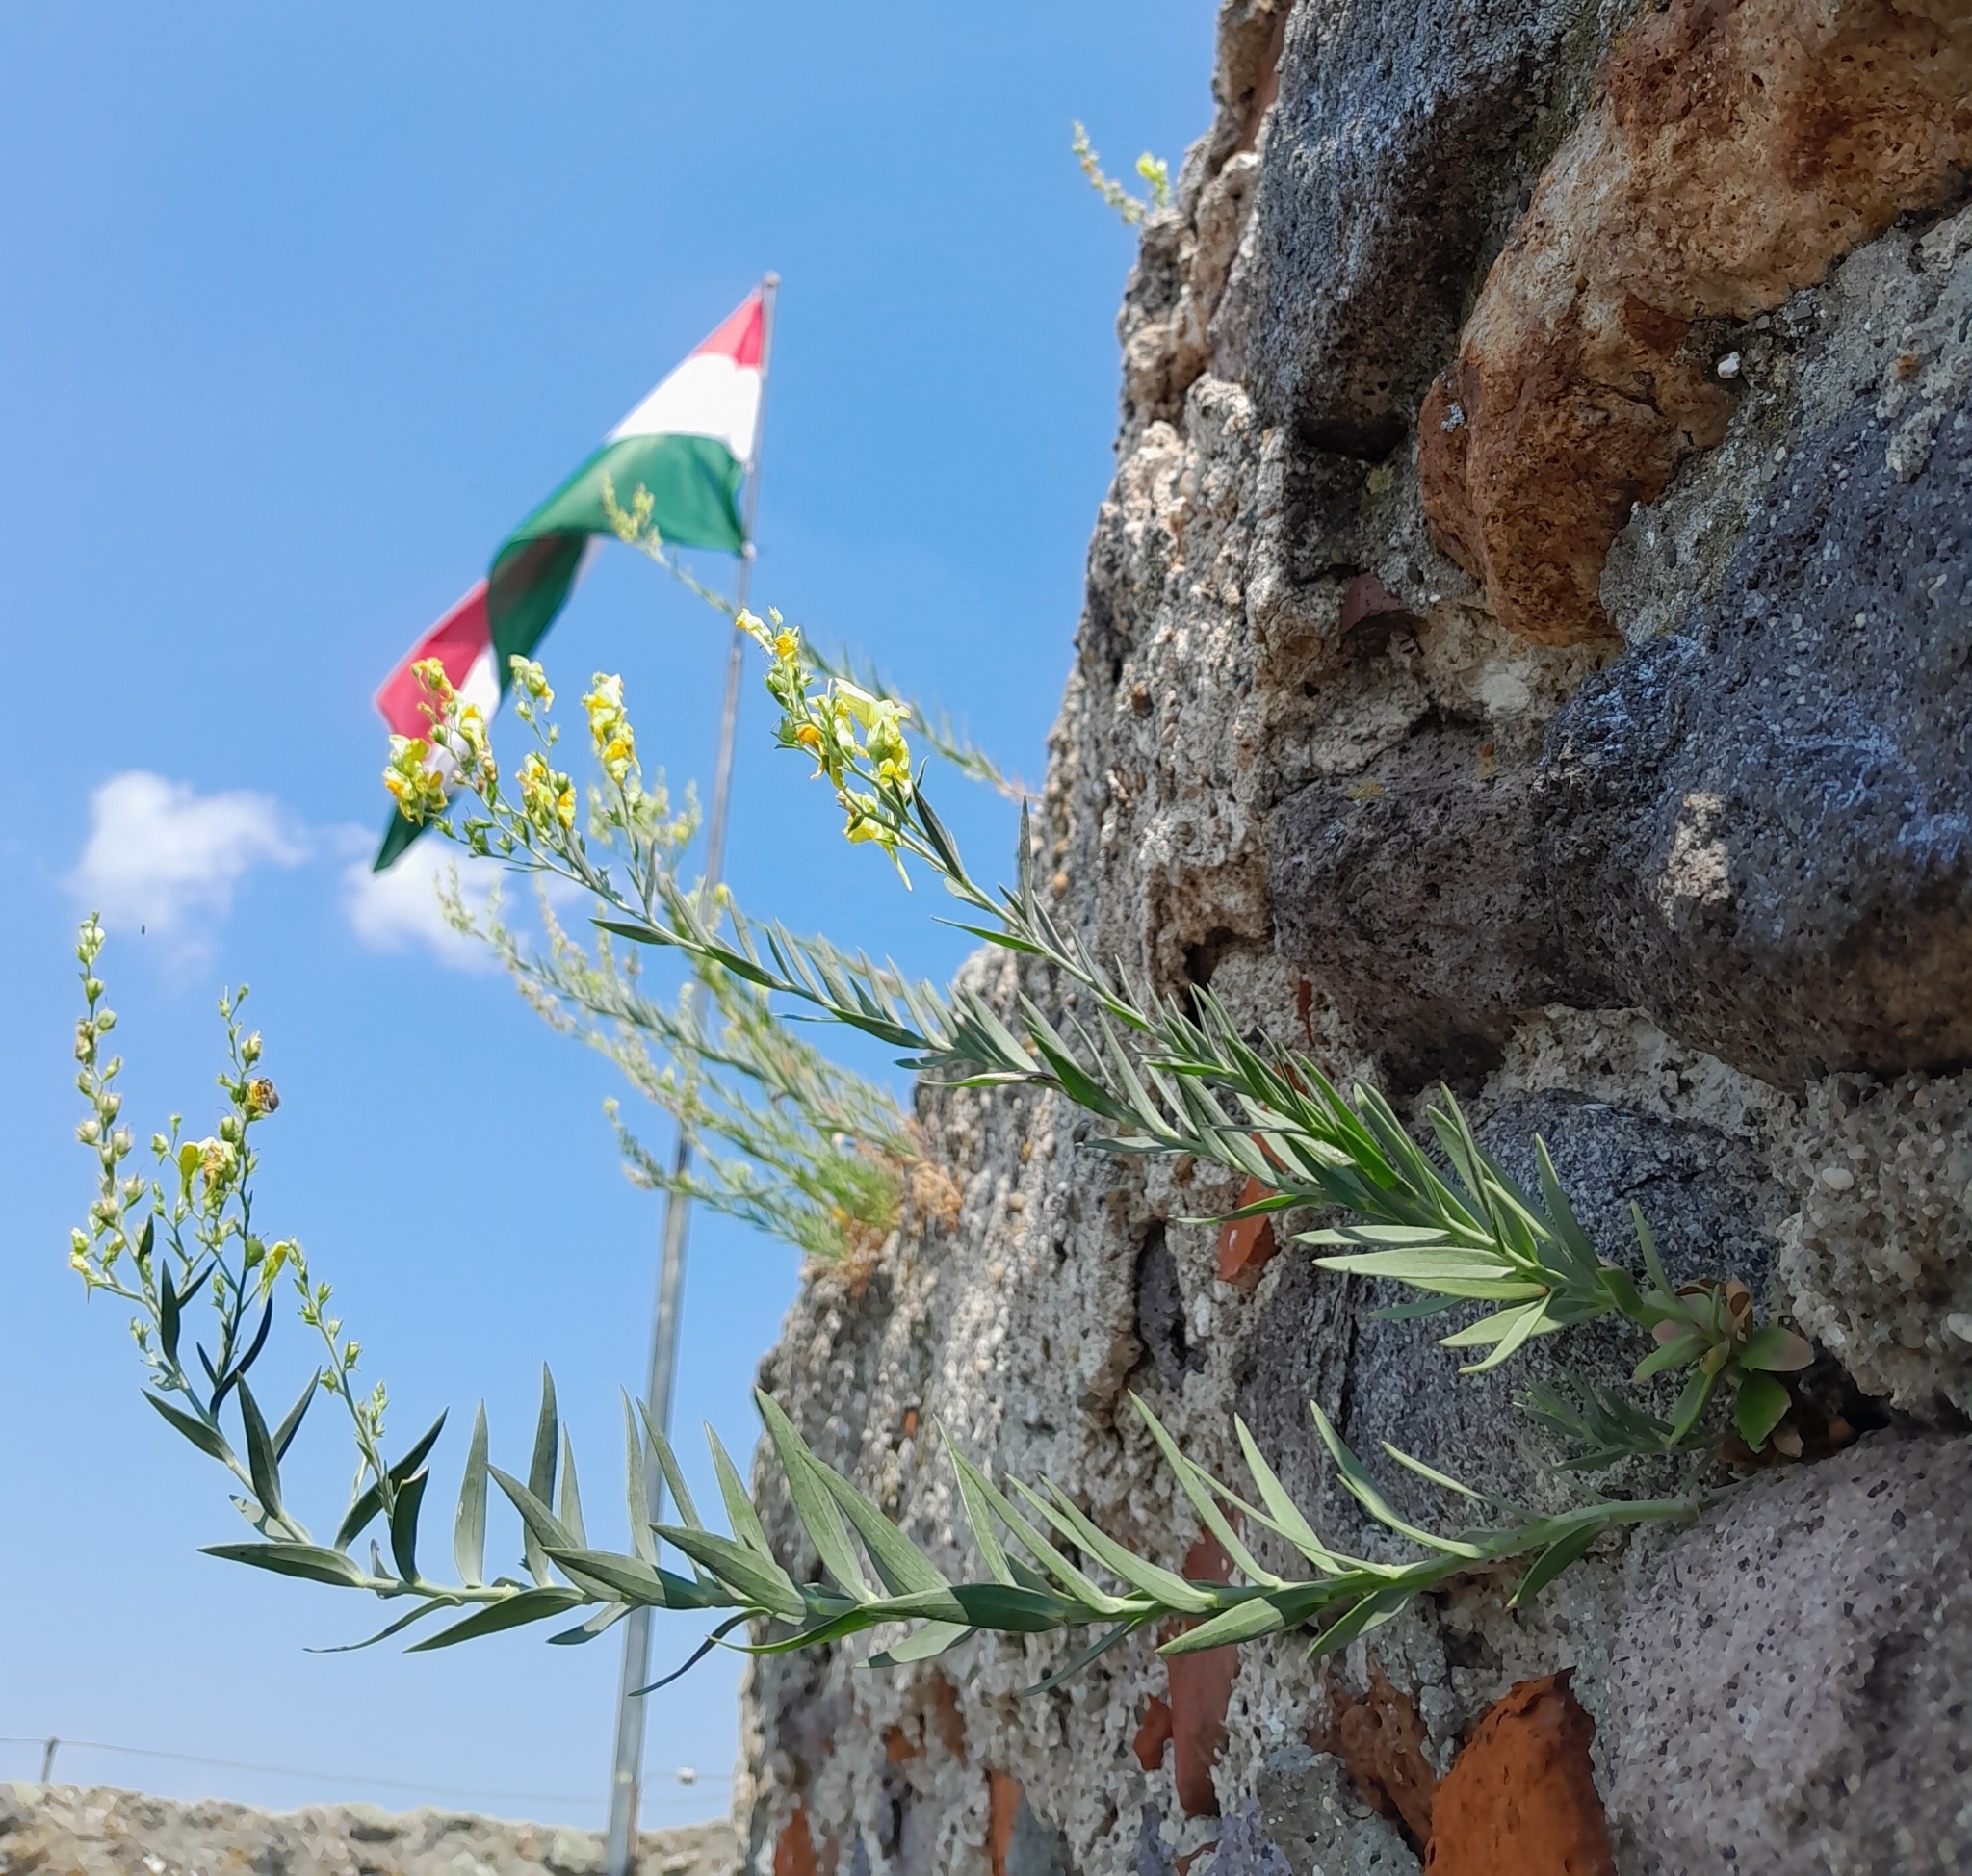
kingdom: Plantae
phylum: Tracheophyta
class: Magnoliopsida
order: Lamiales
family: Plantaginaceae
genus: Linaria
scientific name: Linaria genistifolia
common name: Broomleaf toadflax
